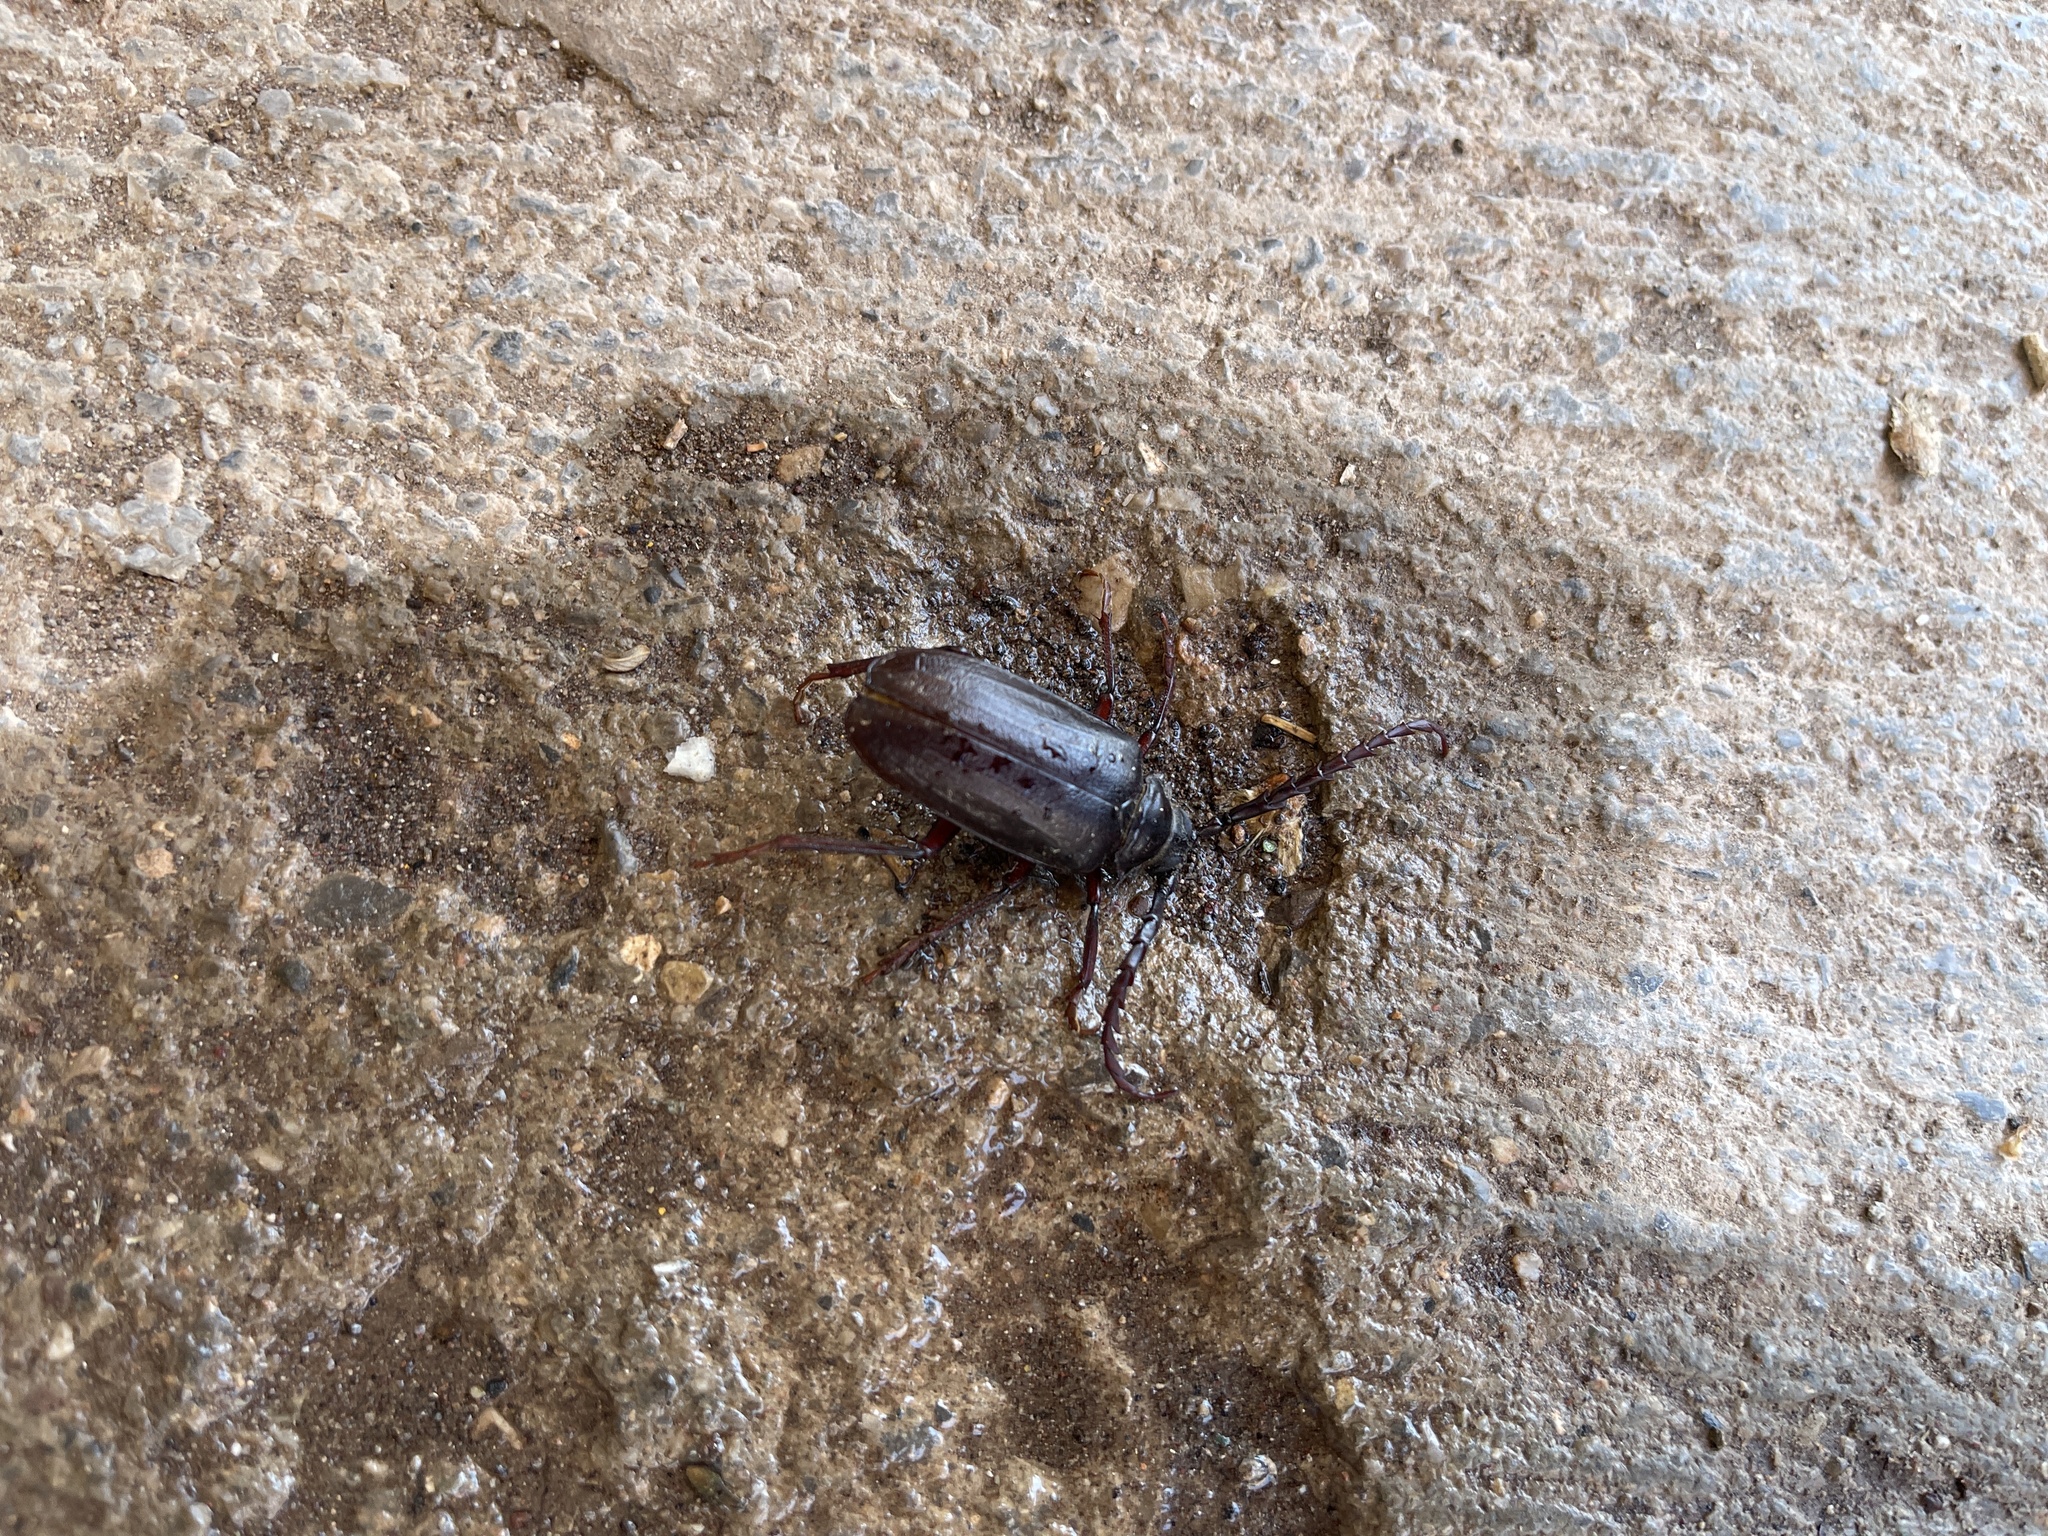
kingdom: Animalia
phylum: Arthropoda
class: Insecta
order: Coleoptera
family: Cerambycidae
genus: Prionus
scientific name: Prionus californicus
